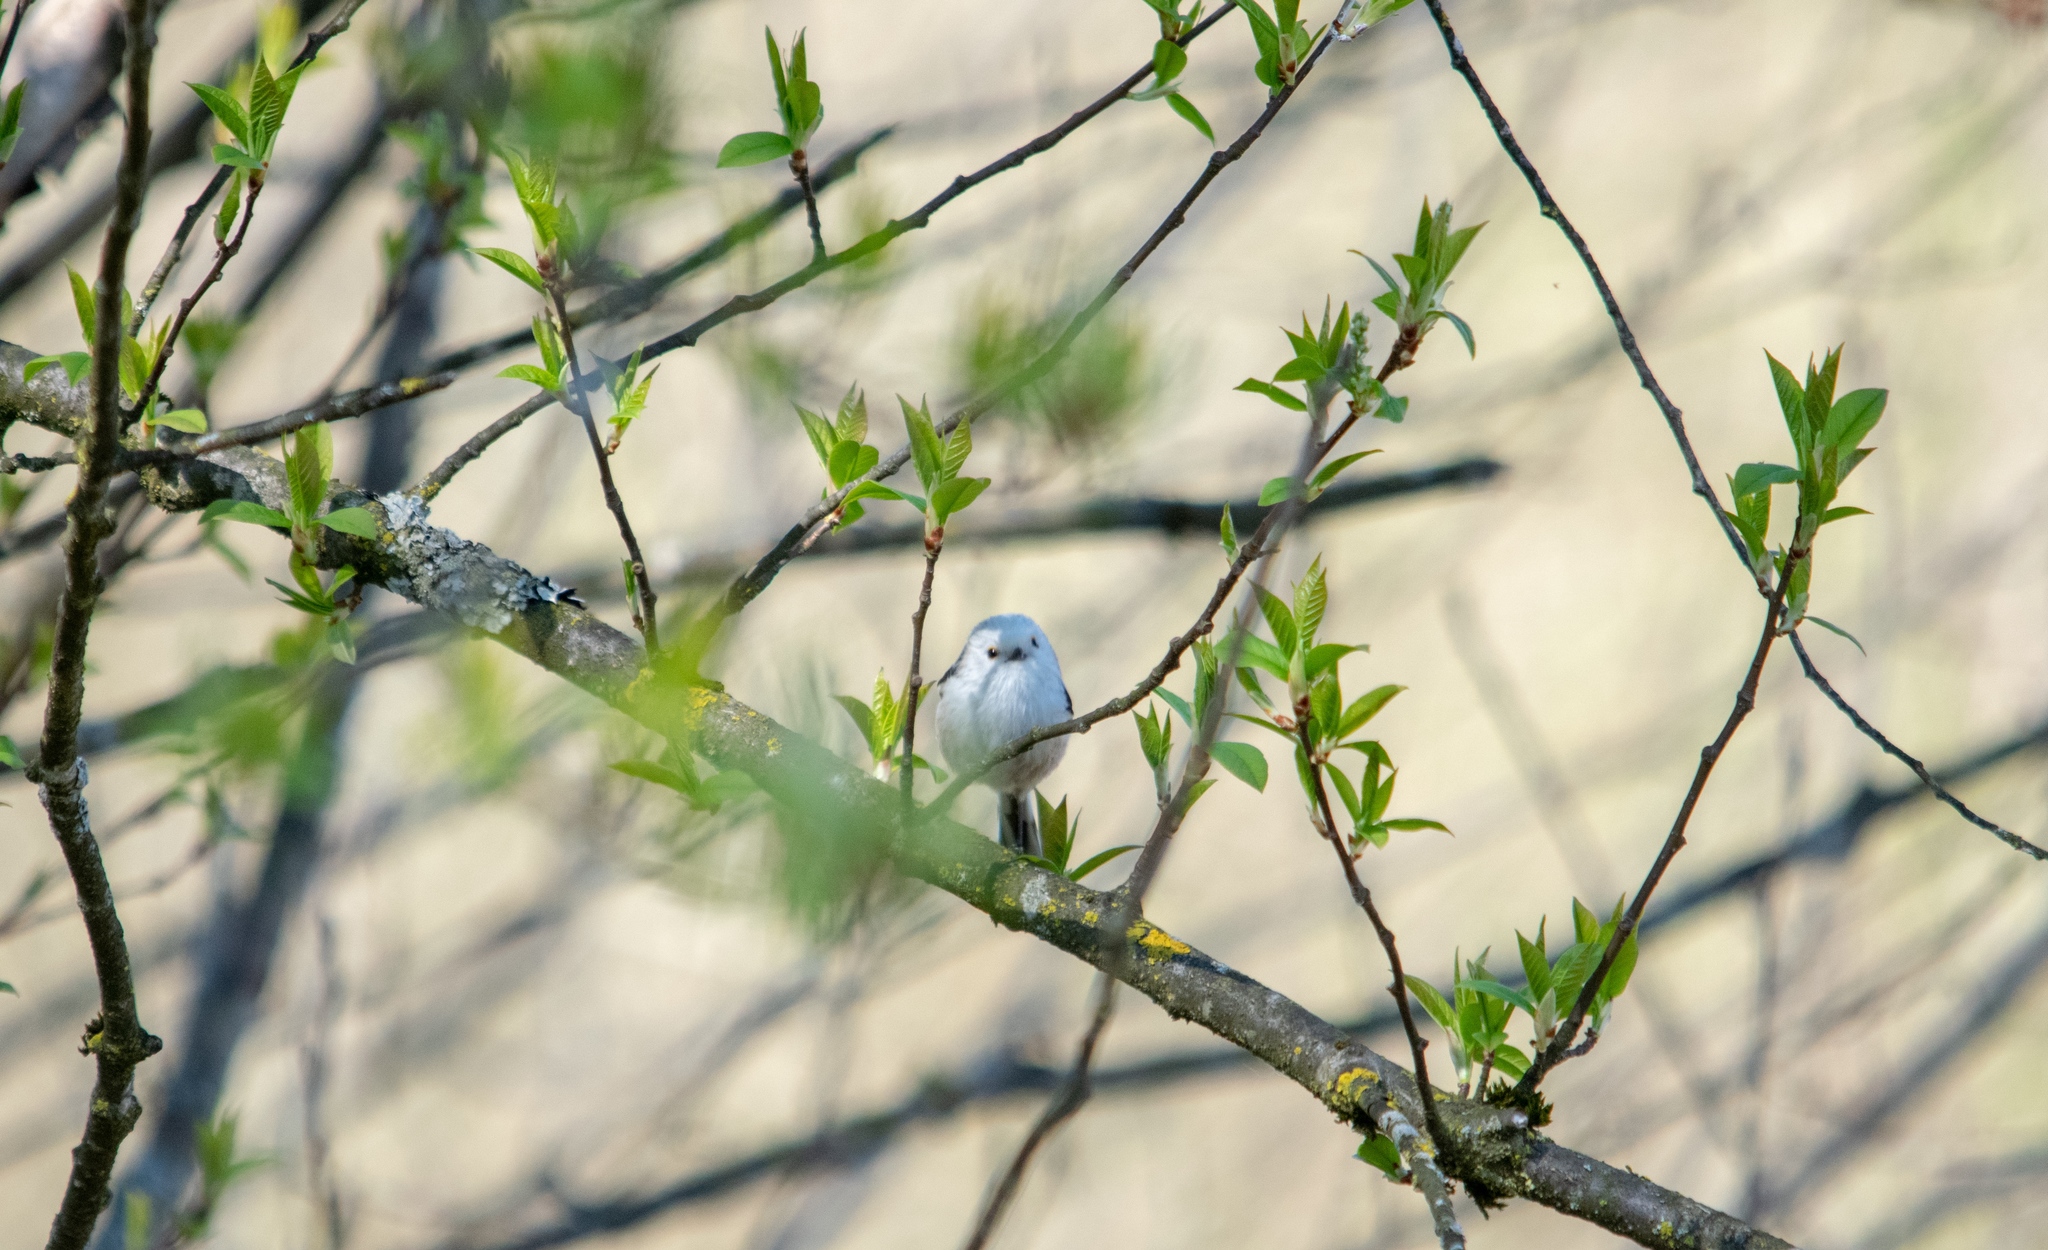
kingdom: Animalia
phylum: Chordata
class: Aves
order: Passeriformes
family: Aegithalidae
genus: Aegithalos
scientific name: Aegithalos caudatus
